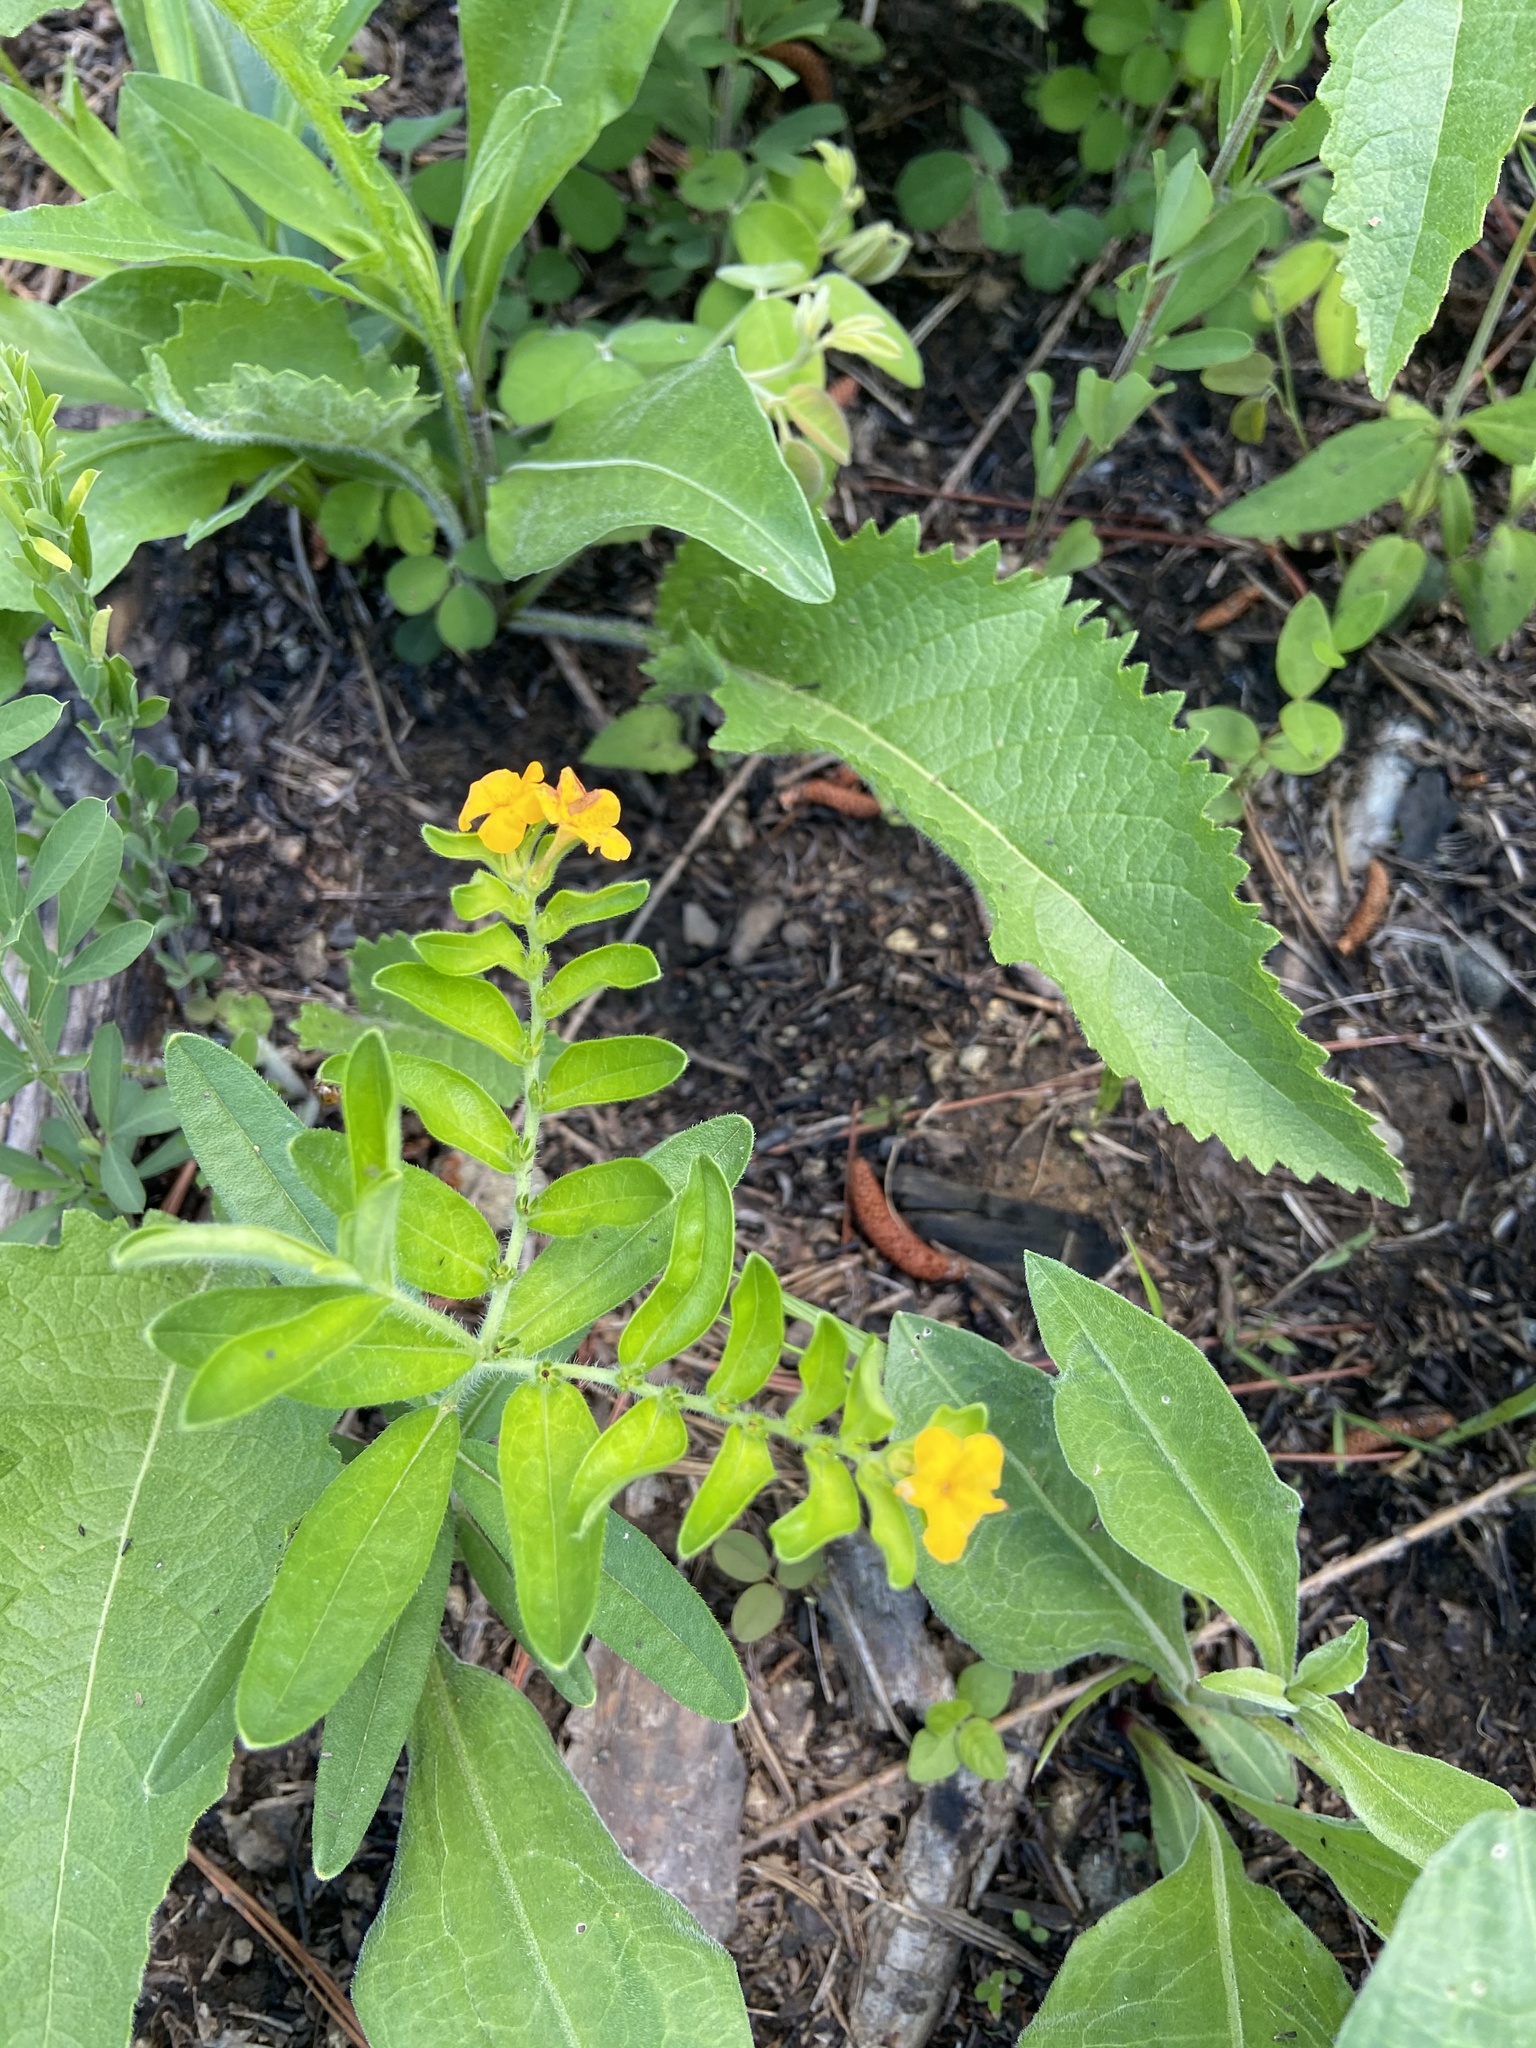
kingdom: Plantae
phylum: Tracheophyta
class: Magnoliopsida
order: Boraginales
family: Boraginaceae
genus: Lithospermum
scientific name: Lithospermum canescens
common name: Hoary puccoon
